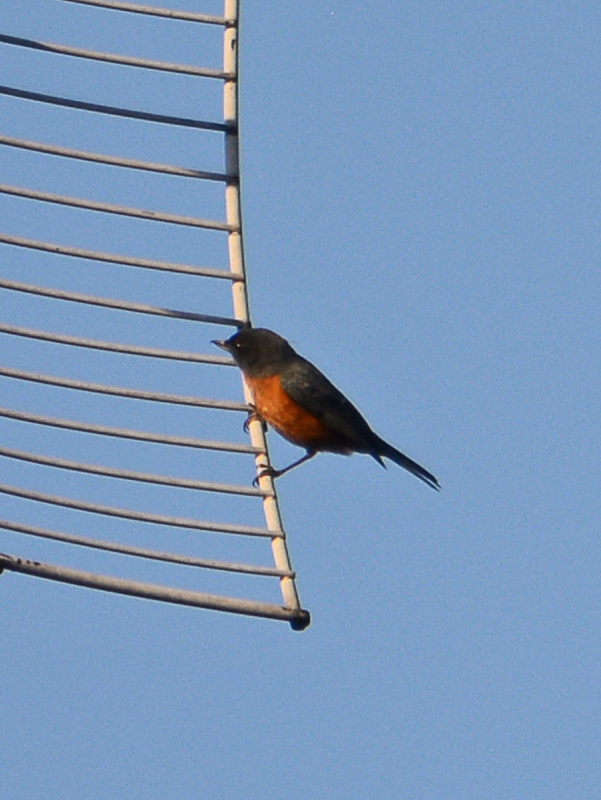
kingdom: Animalia
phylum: Chordata
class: Aves
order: Passeriformes
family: Thraupidae
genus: Diglossa
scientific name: Diglossa baritula
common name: Cinnamon-bellied flowerpiercer
